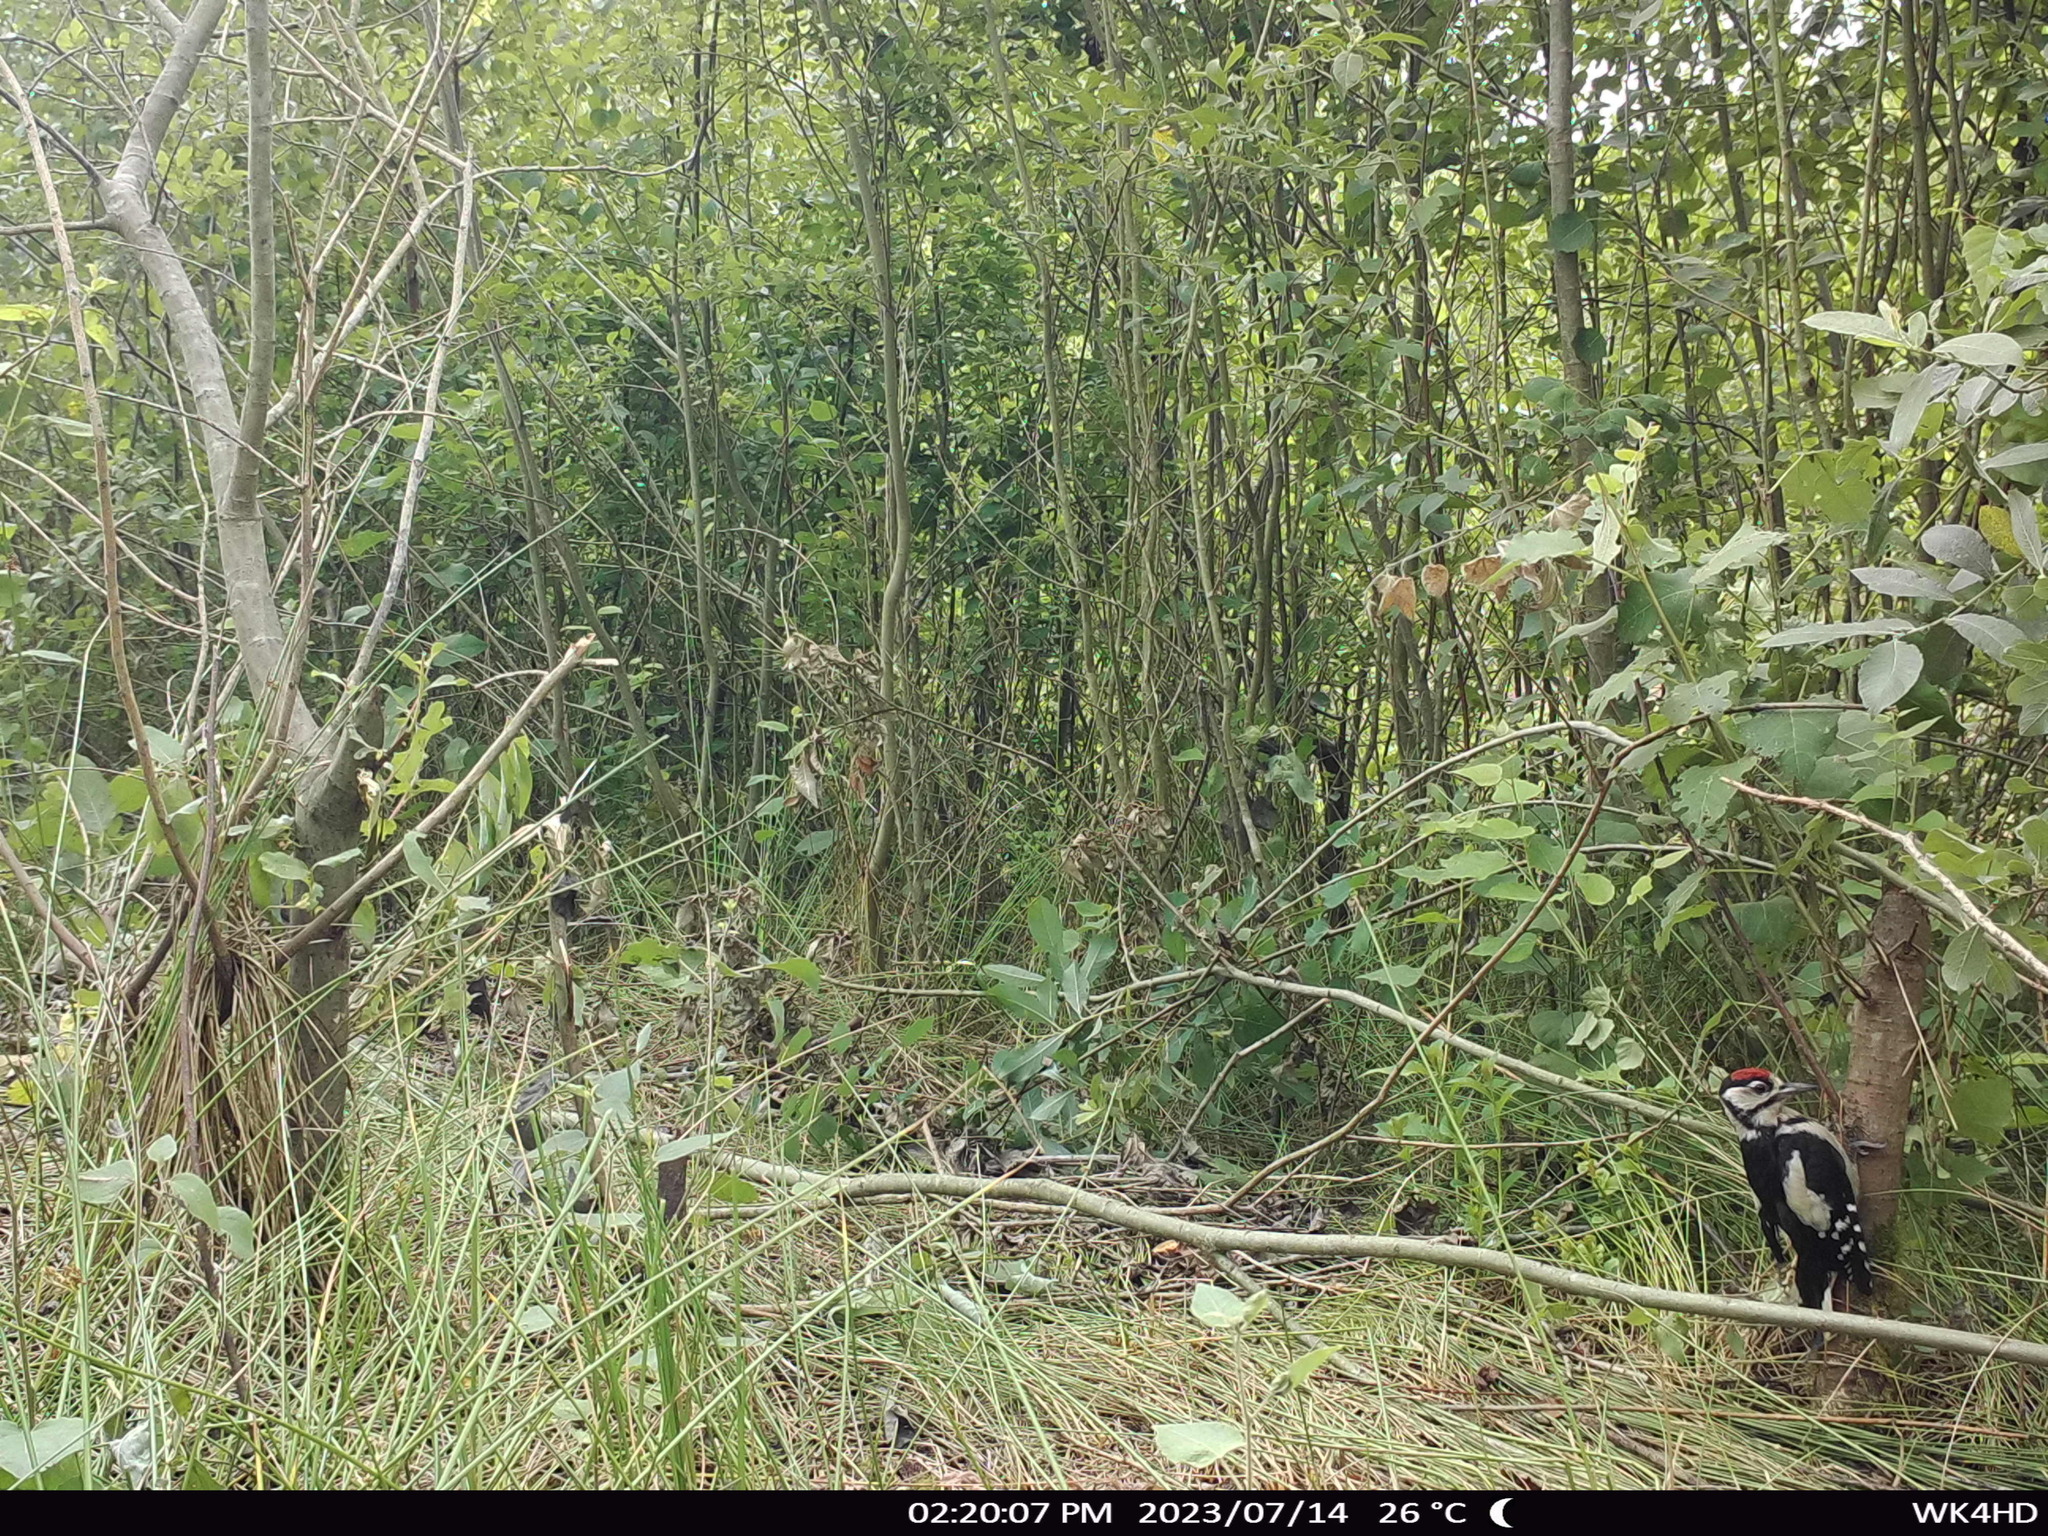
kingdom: Animalia
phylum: Chordata
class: Aves
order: Piciformes
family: Picidae
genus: Dendrocopos
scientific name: Dendrocopos major
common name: Great spotted woodpecker
